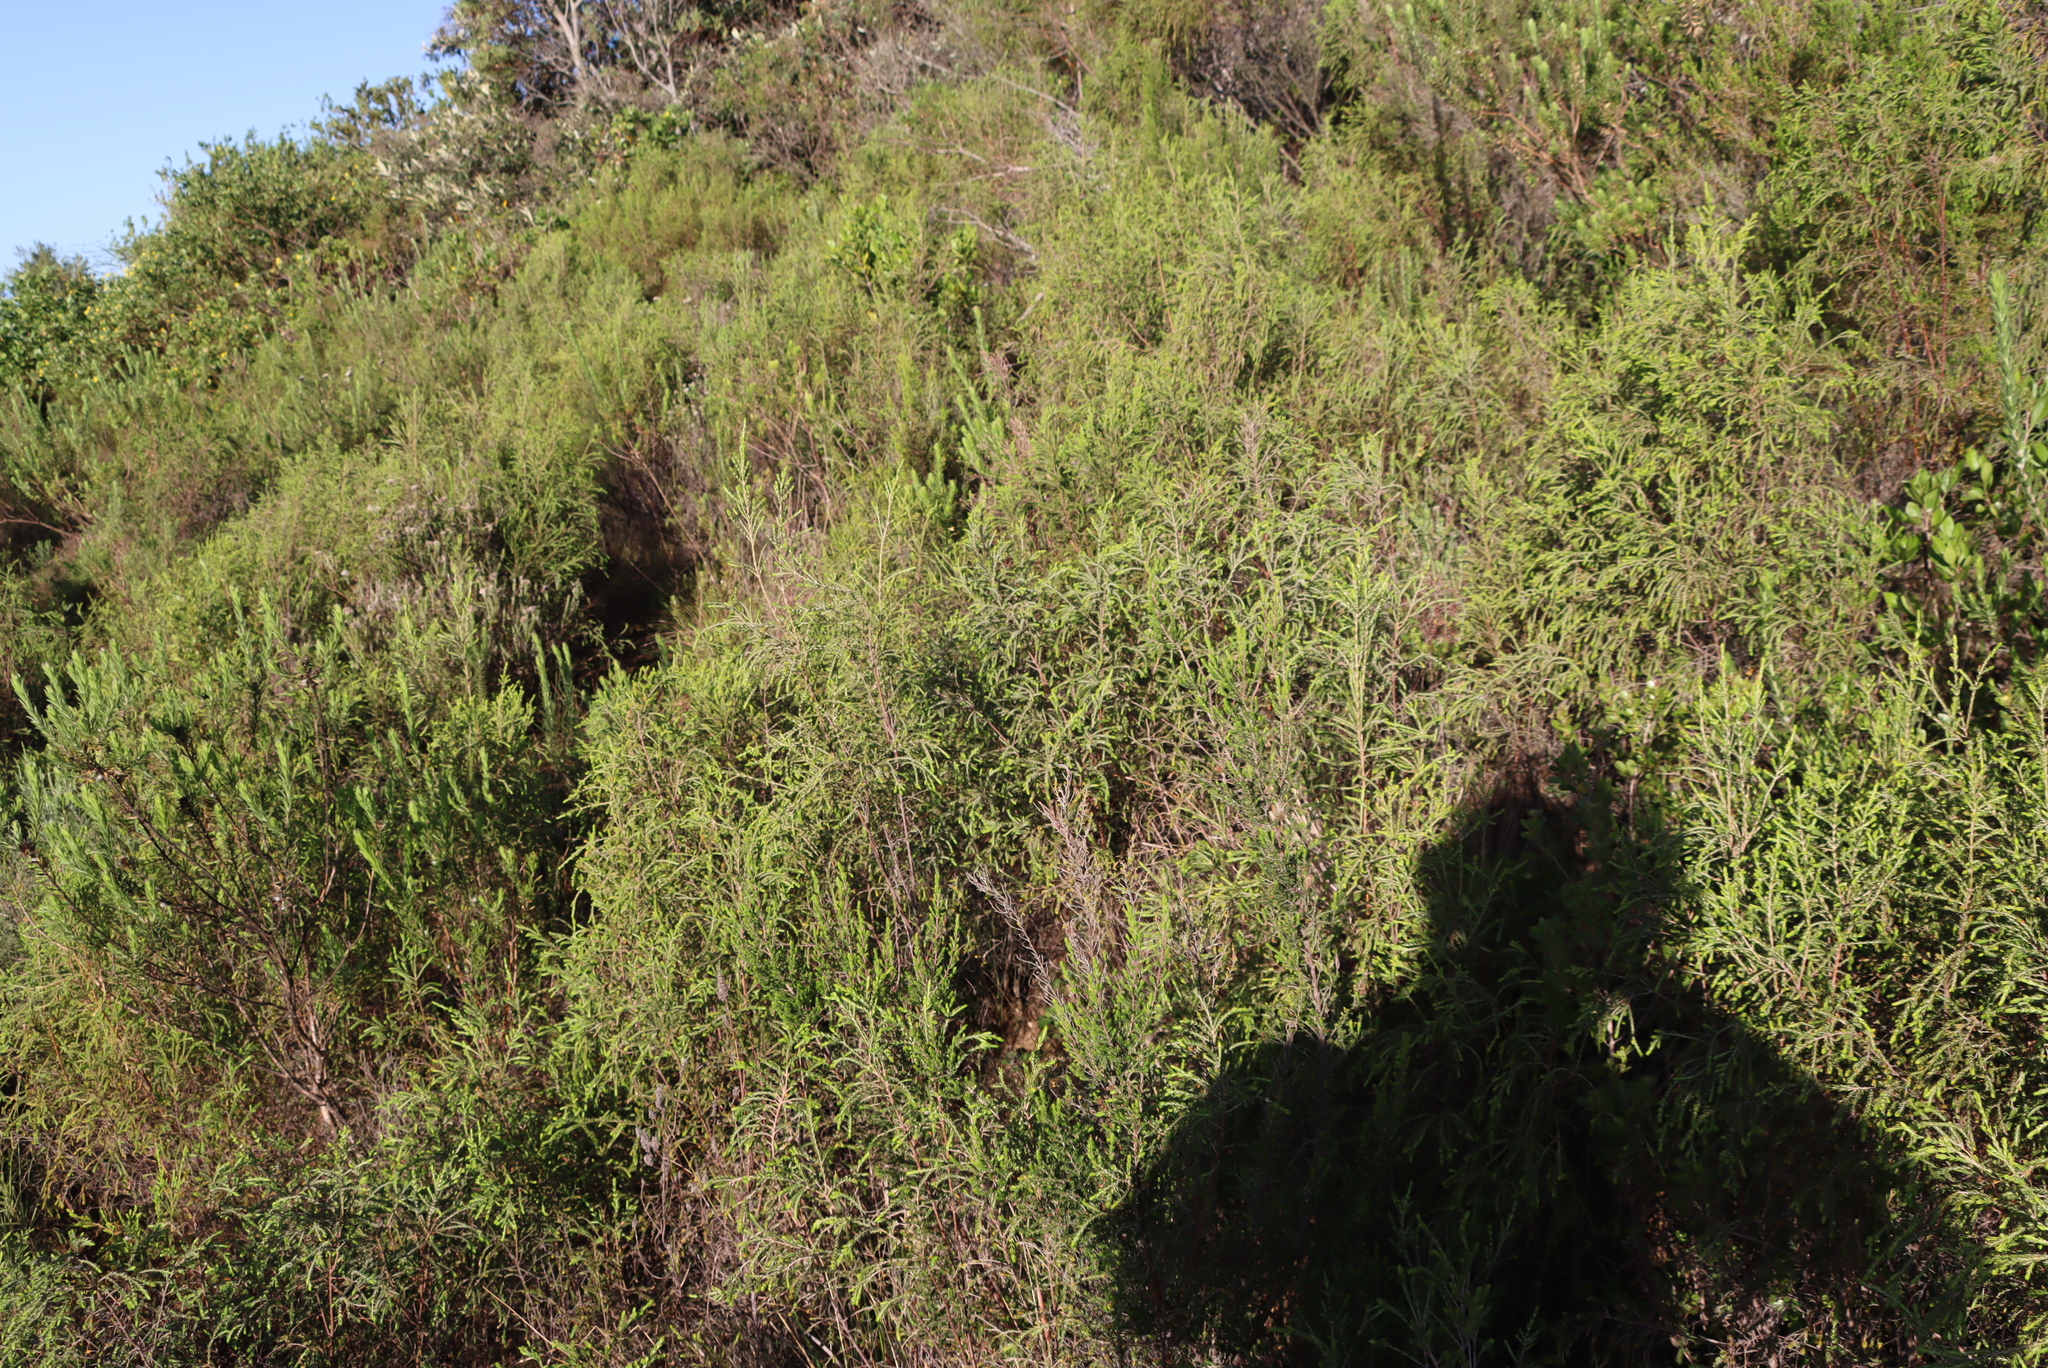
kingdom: Plantae
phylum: Tracheophyta
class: Magnoliopsida
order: Malvales
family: Thymelaeaceae
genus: Passerina
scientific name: Passerina falcifolia
